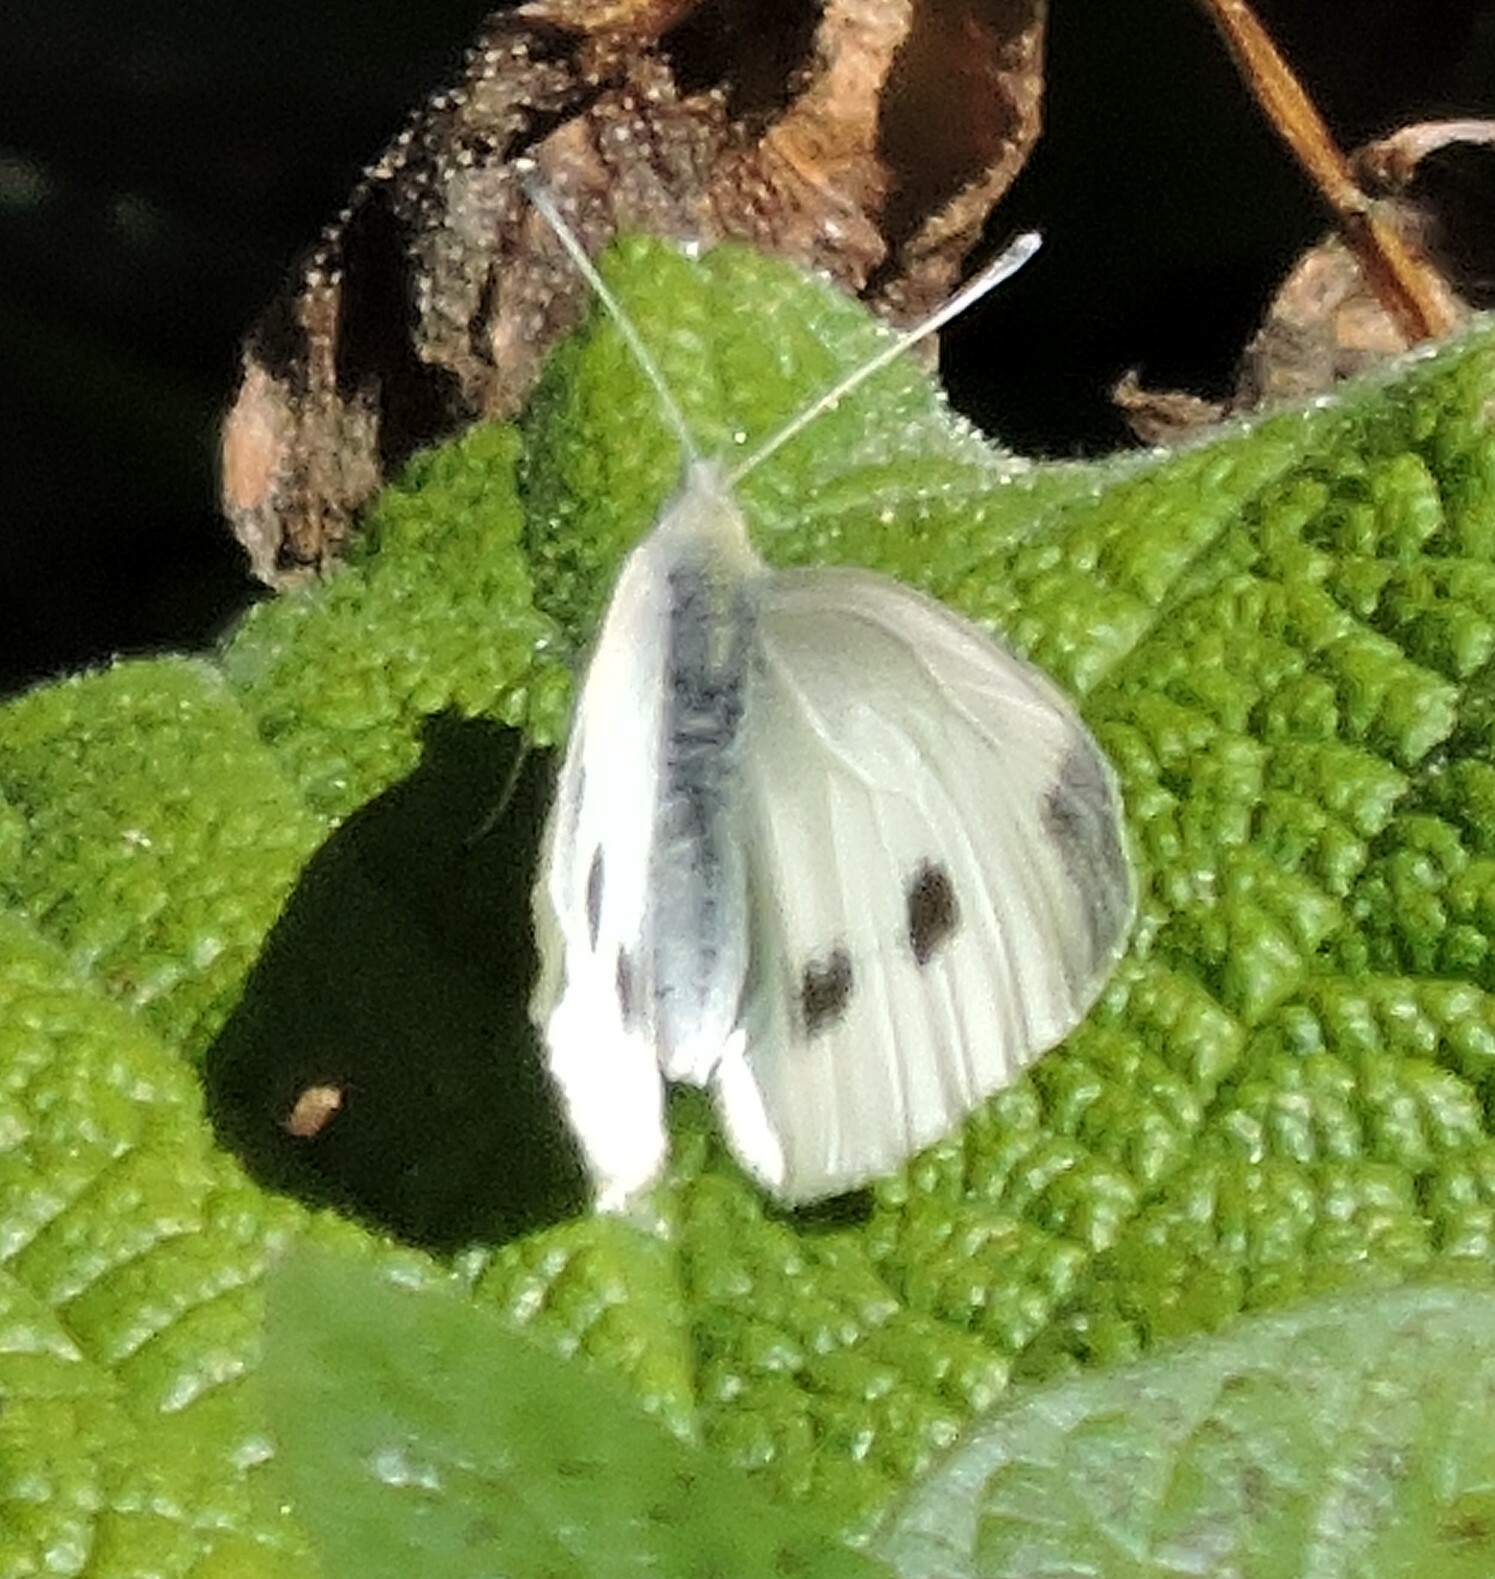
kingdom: Animalia
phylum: Arthropoda
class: Insecta
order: Lepidoptera
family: Pieridae
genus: Pieris
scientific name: Pieris rapae
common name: Small white
